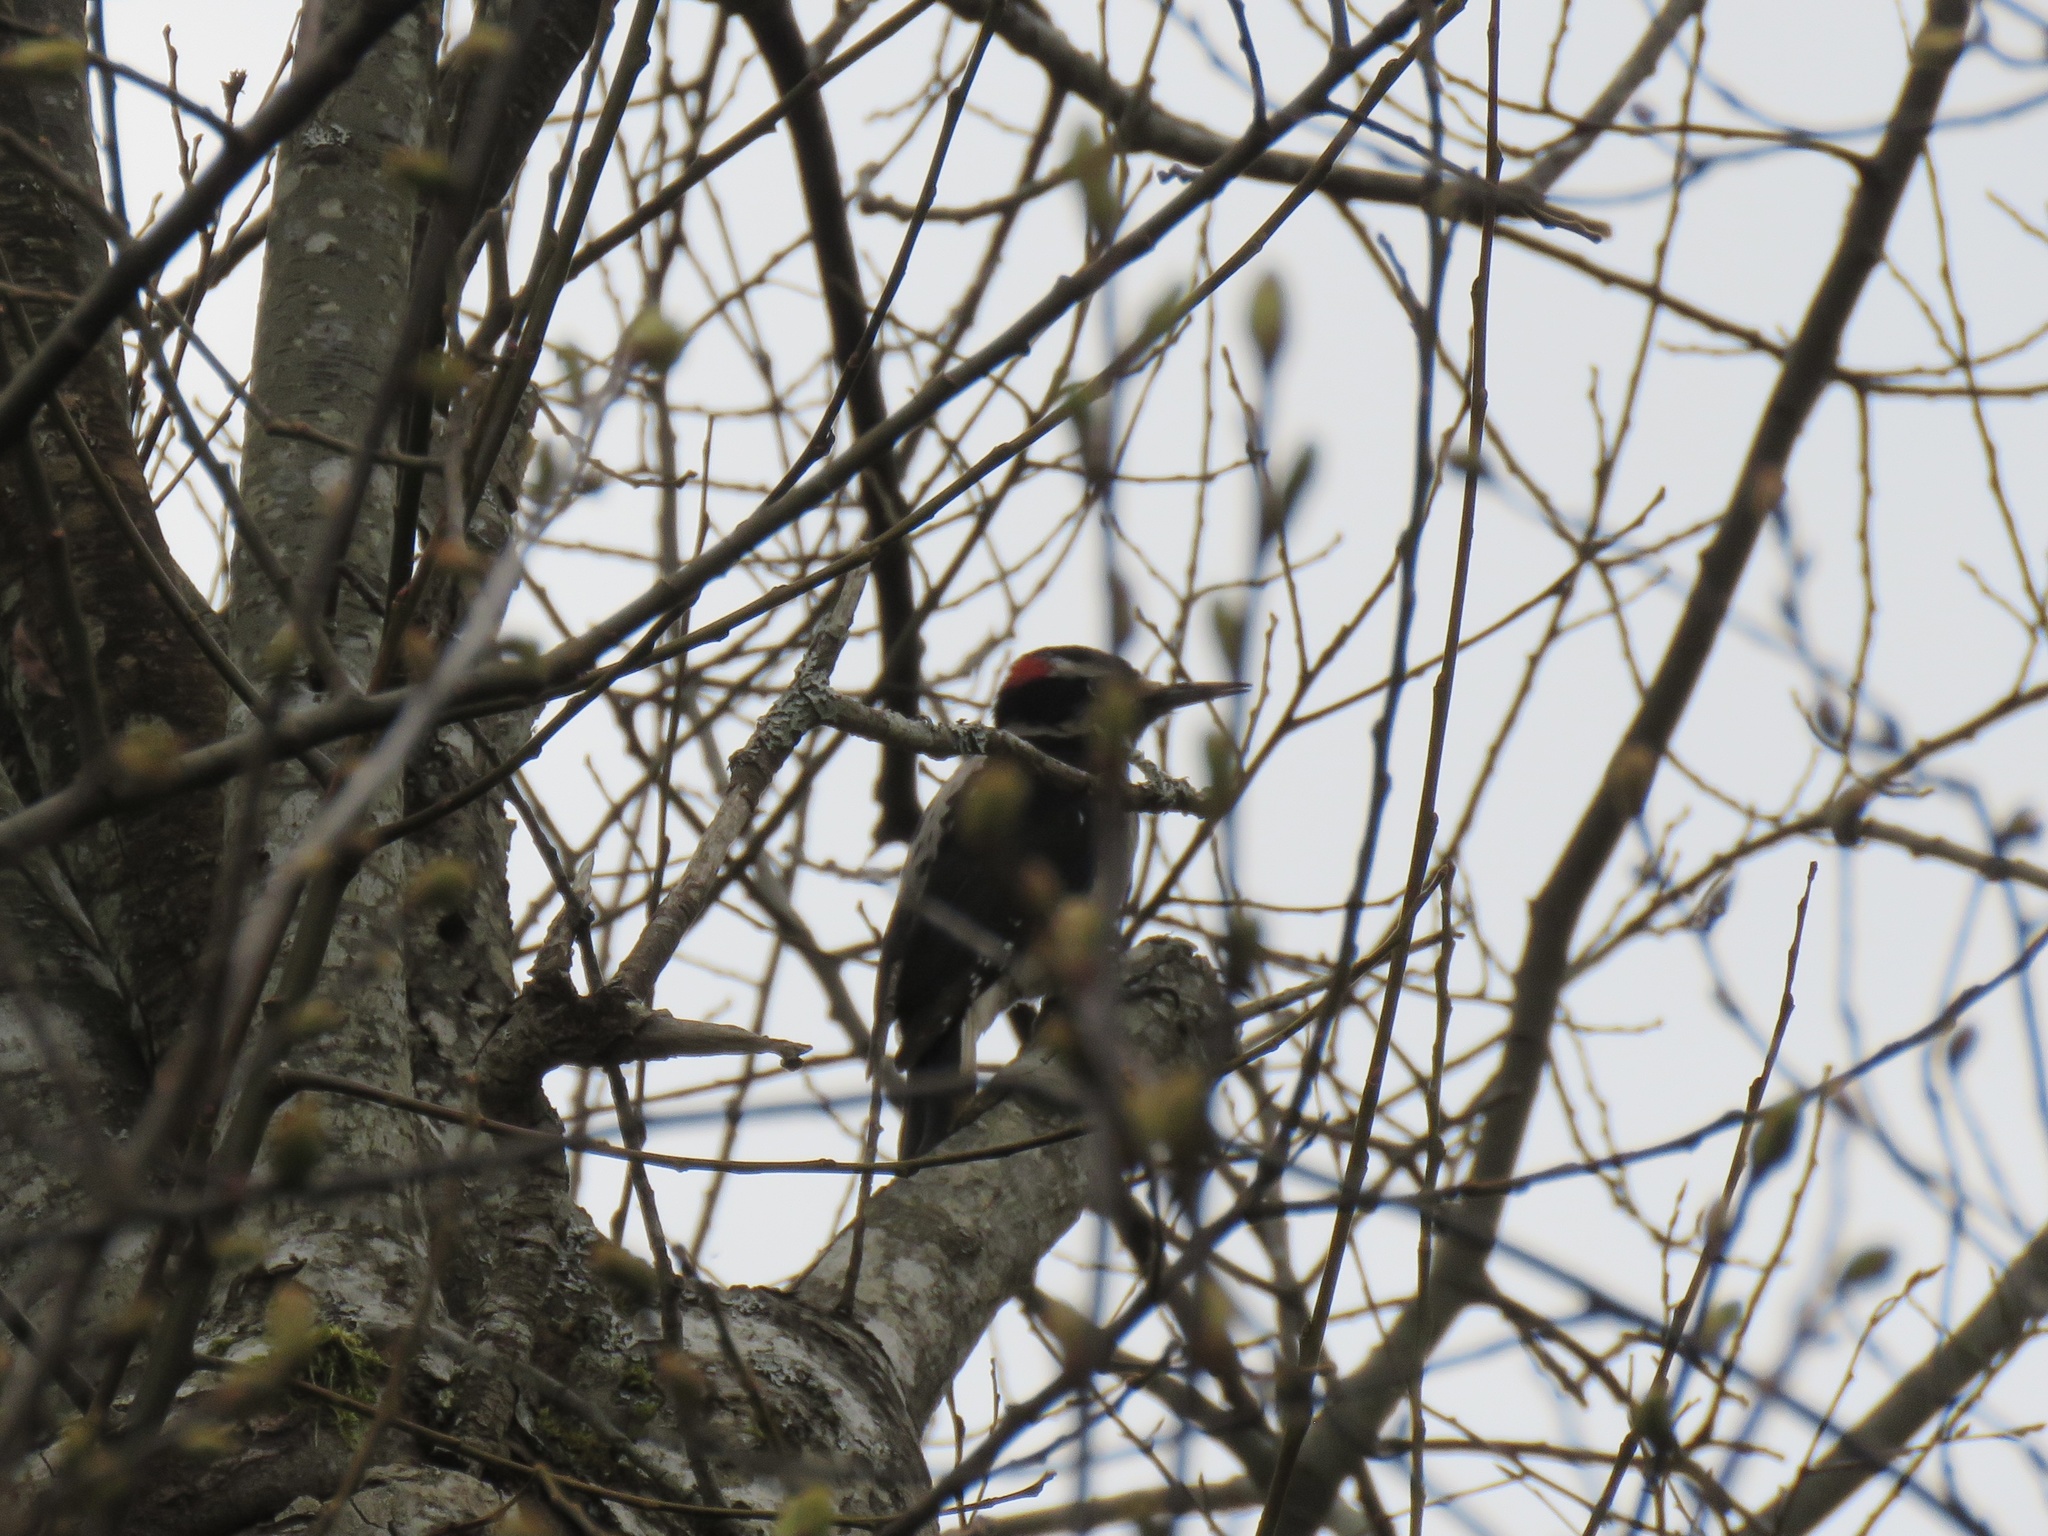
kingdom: Animalia
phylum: Chordata
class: Aves
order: Piciformes
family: Picidae
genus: Leuconotopicus
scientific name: Leuconotopicus villosus
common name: Hairy woodpecker
